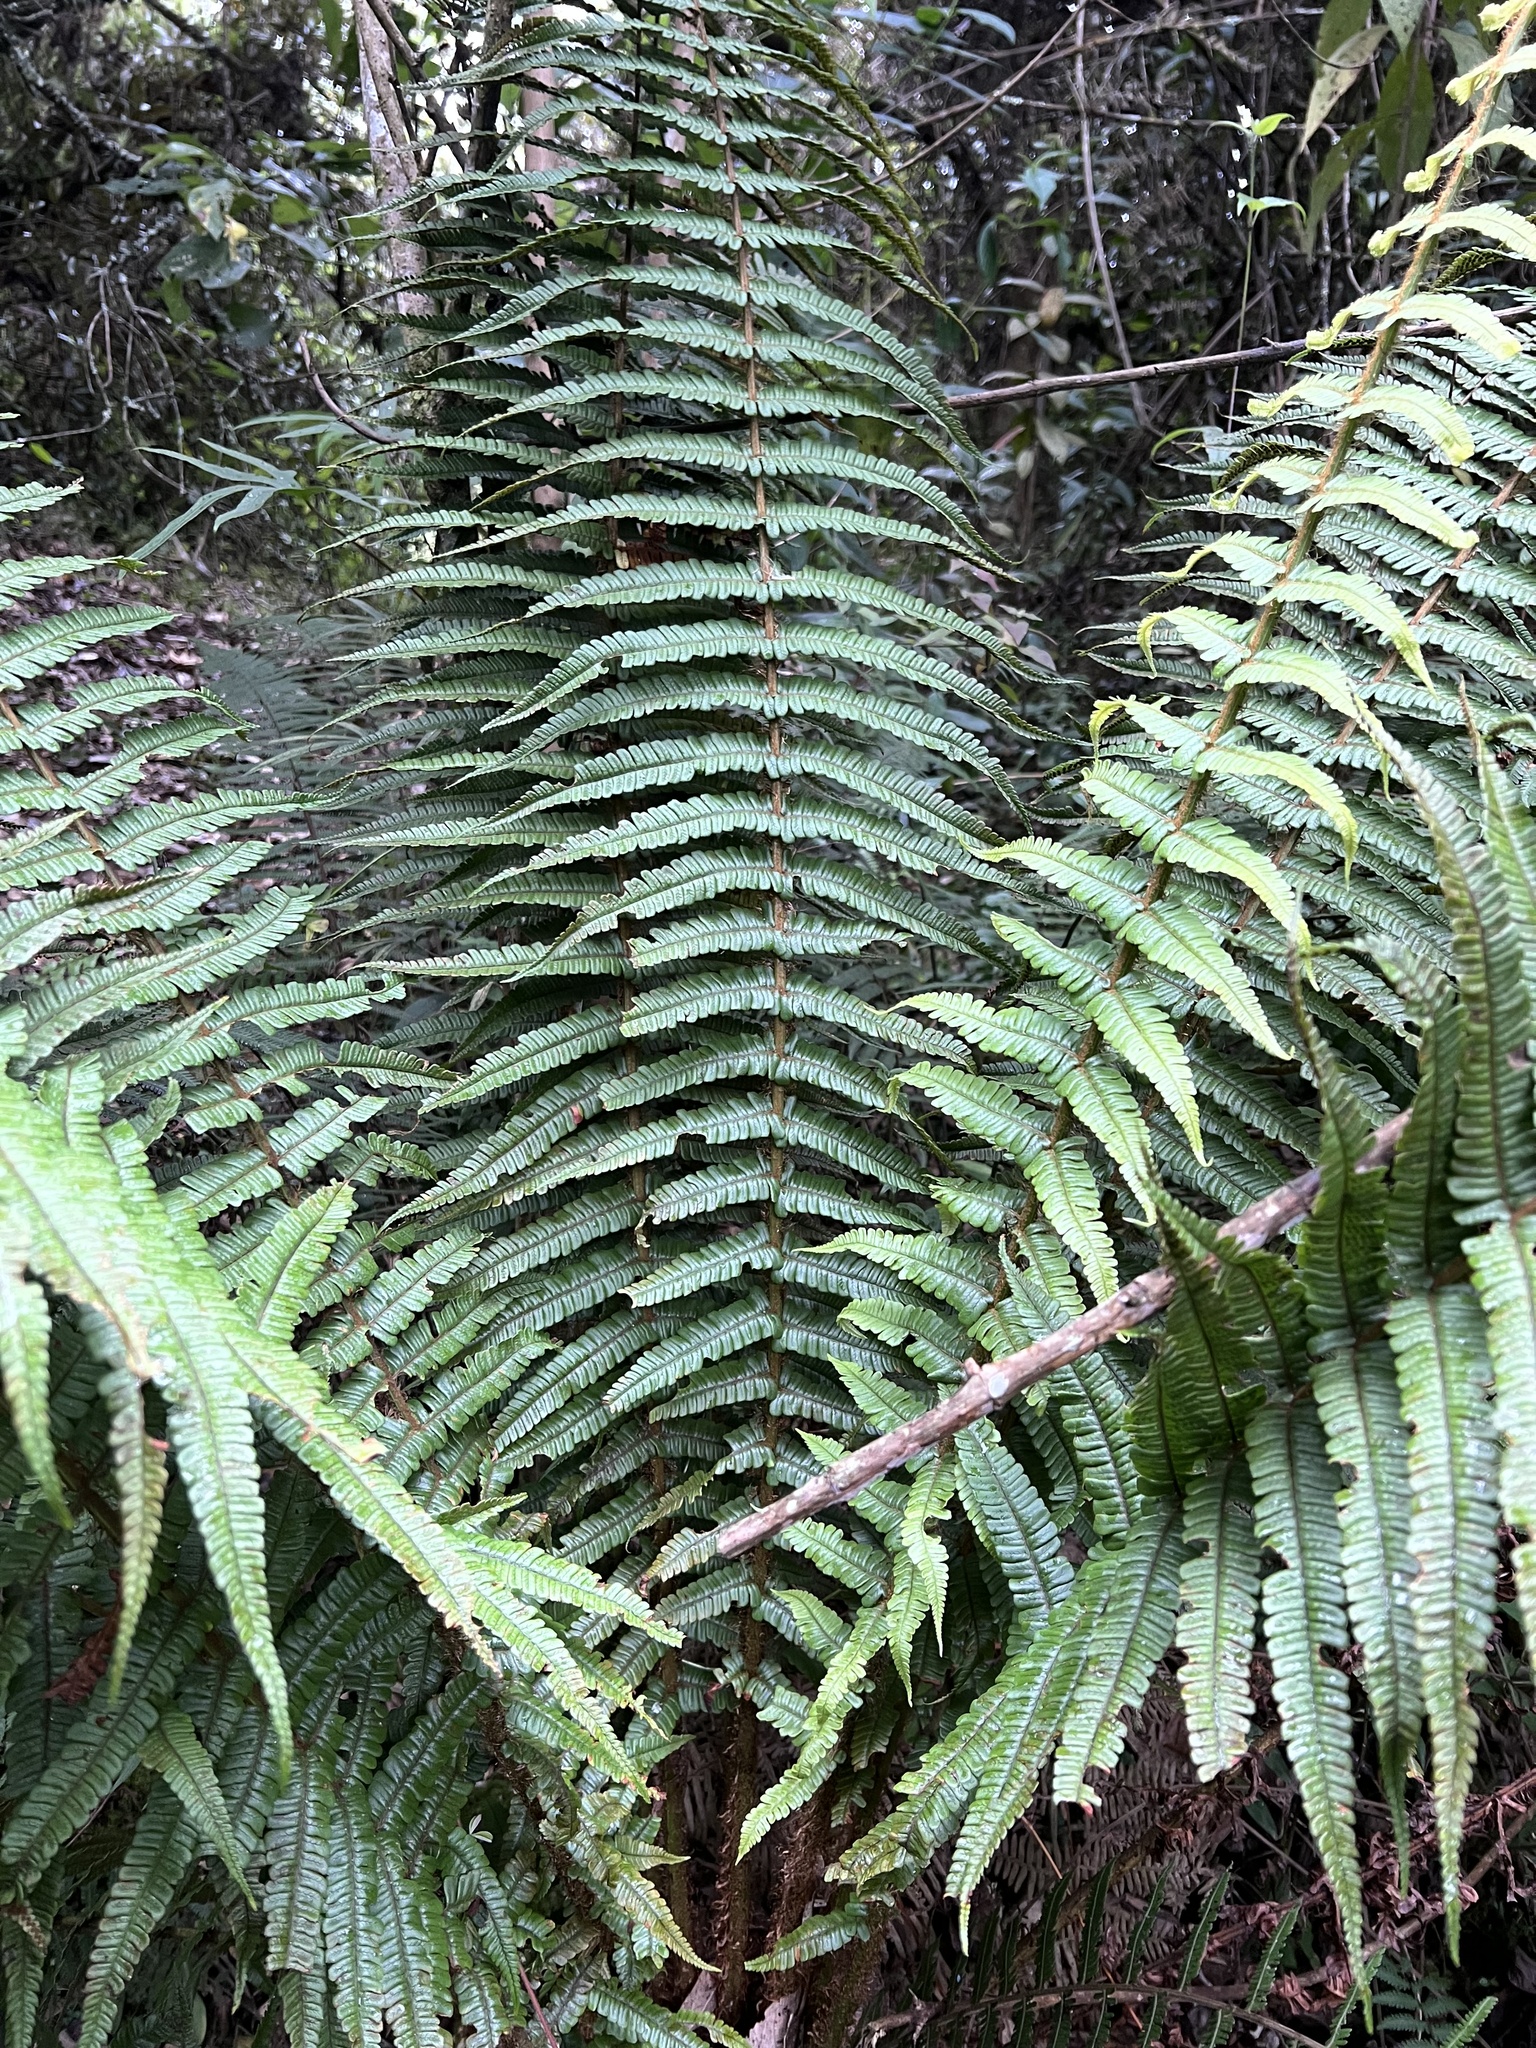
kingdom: Plantae
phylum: Tracheophyta
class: Polypodiopsida
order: Polypodiales
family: Dryopteridaceae
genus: Dryopteris
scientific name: Dryopteris wallichiana
